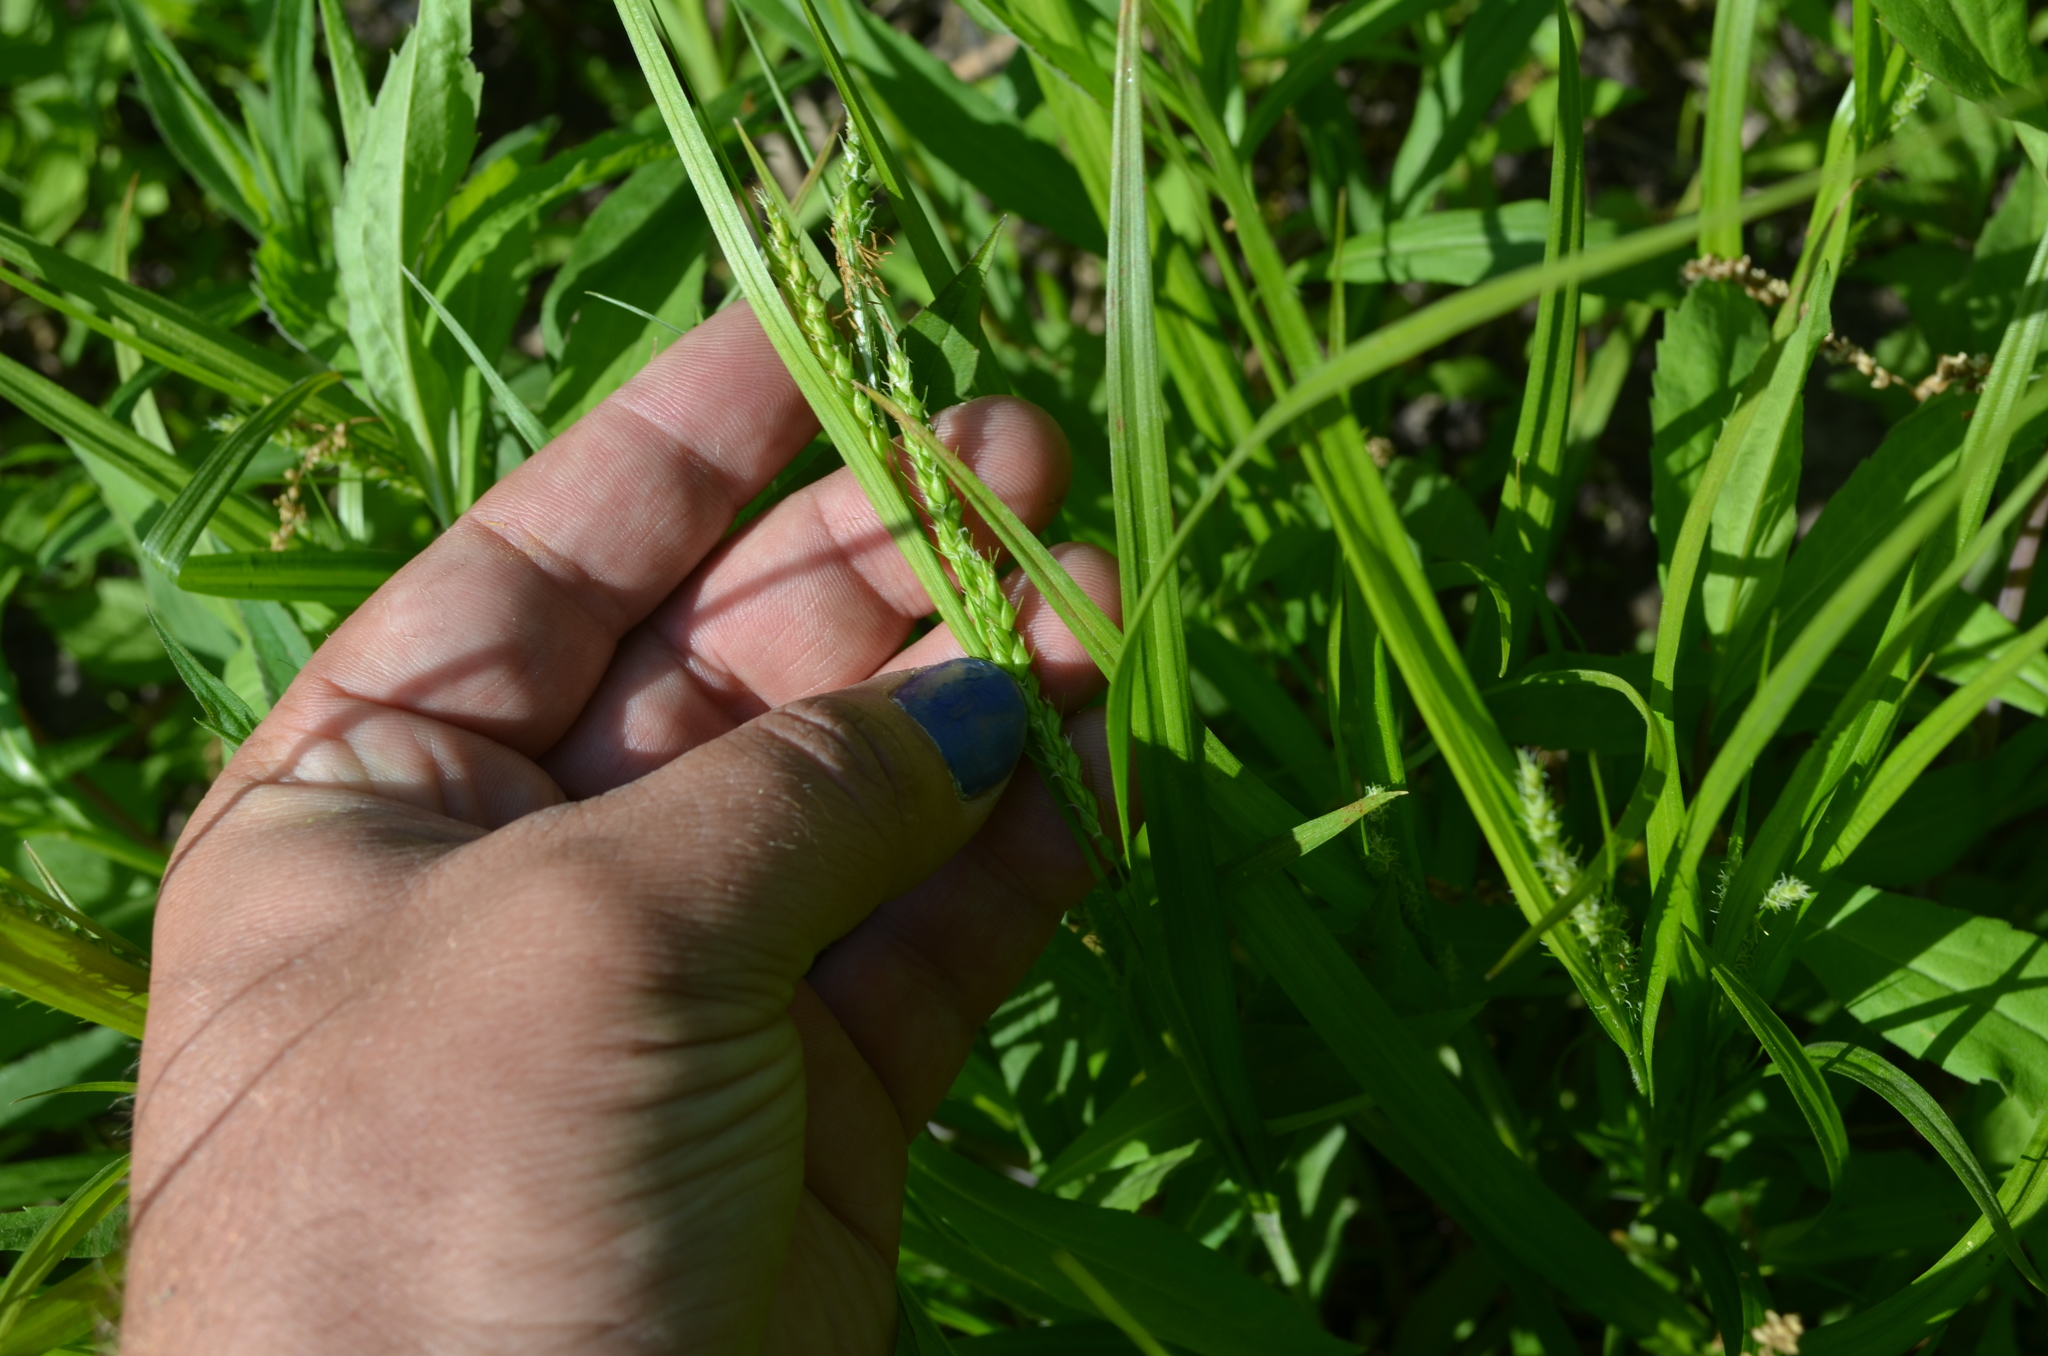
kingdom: Plantae
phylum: Tracheophyta
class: Liliopsida
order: Poales
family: Cyperaceae
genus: Carex
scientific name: Carex gracillima
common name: Graceful sedge
